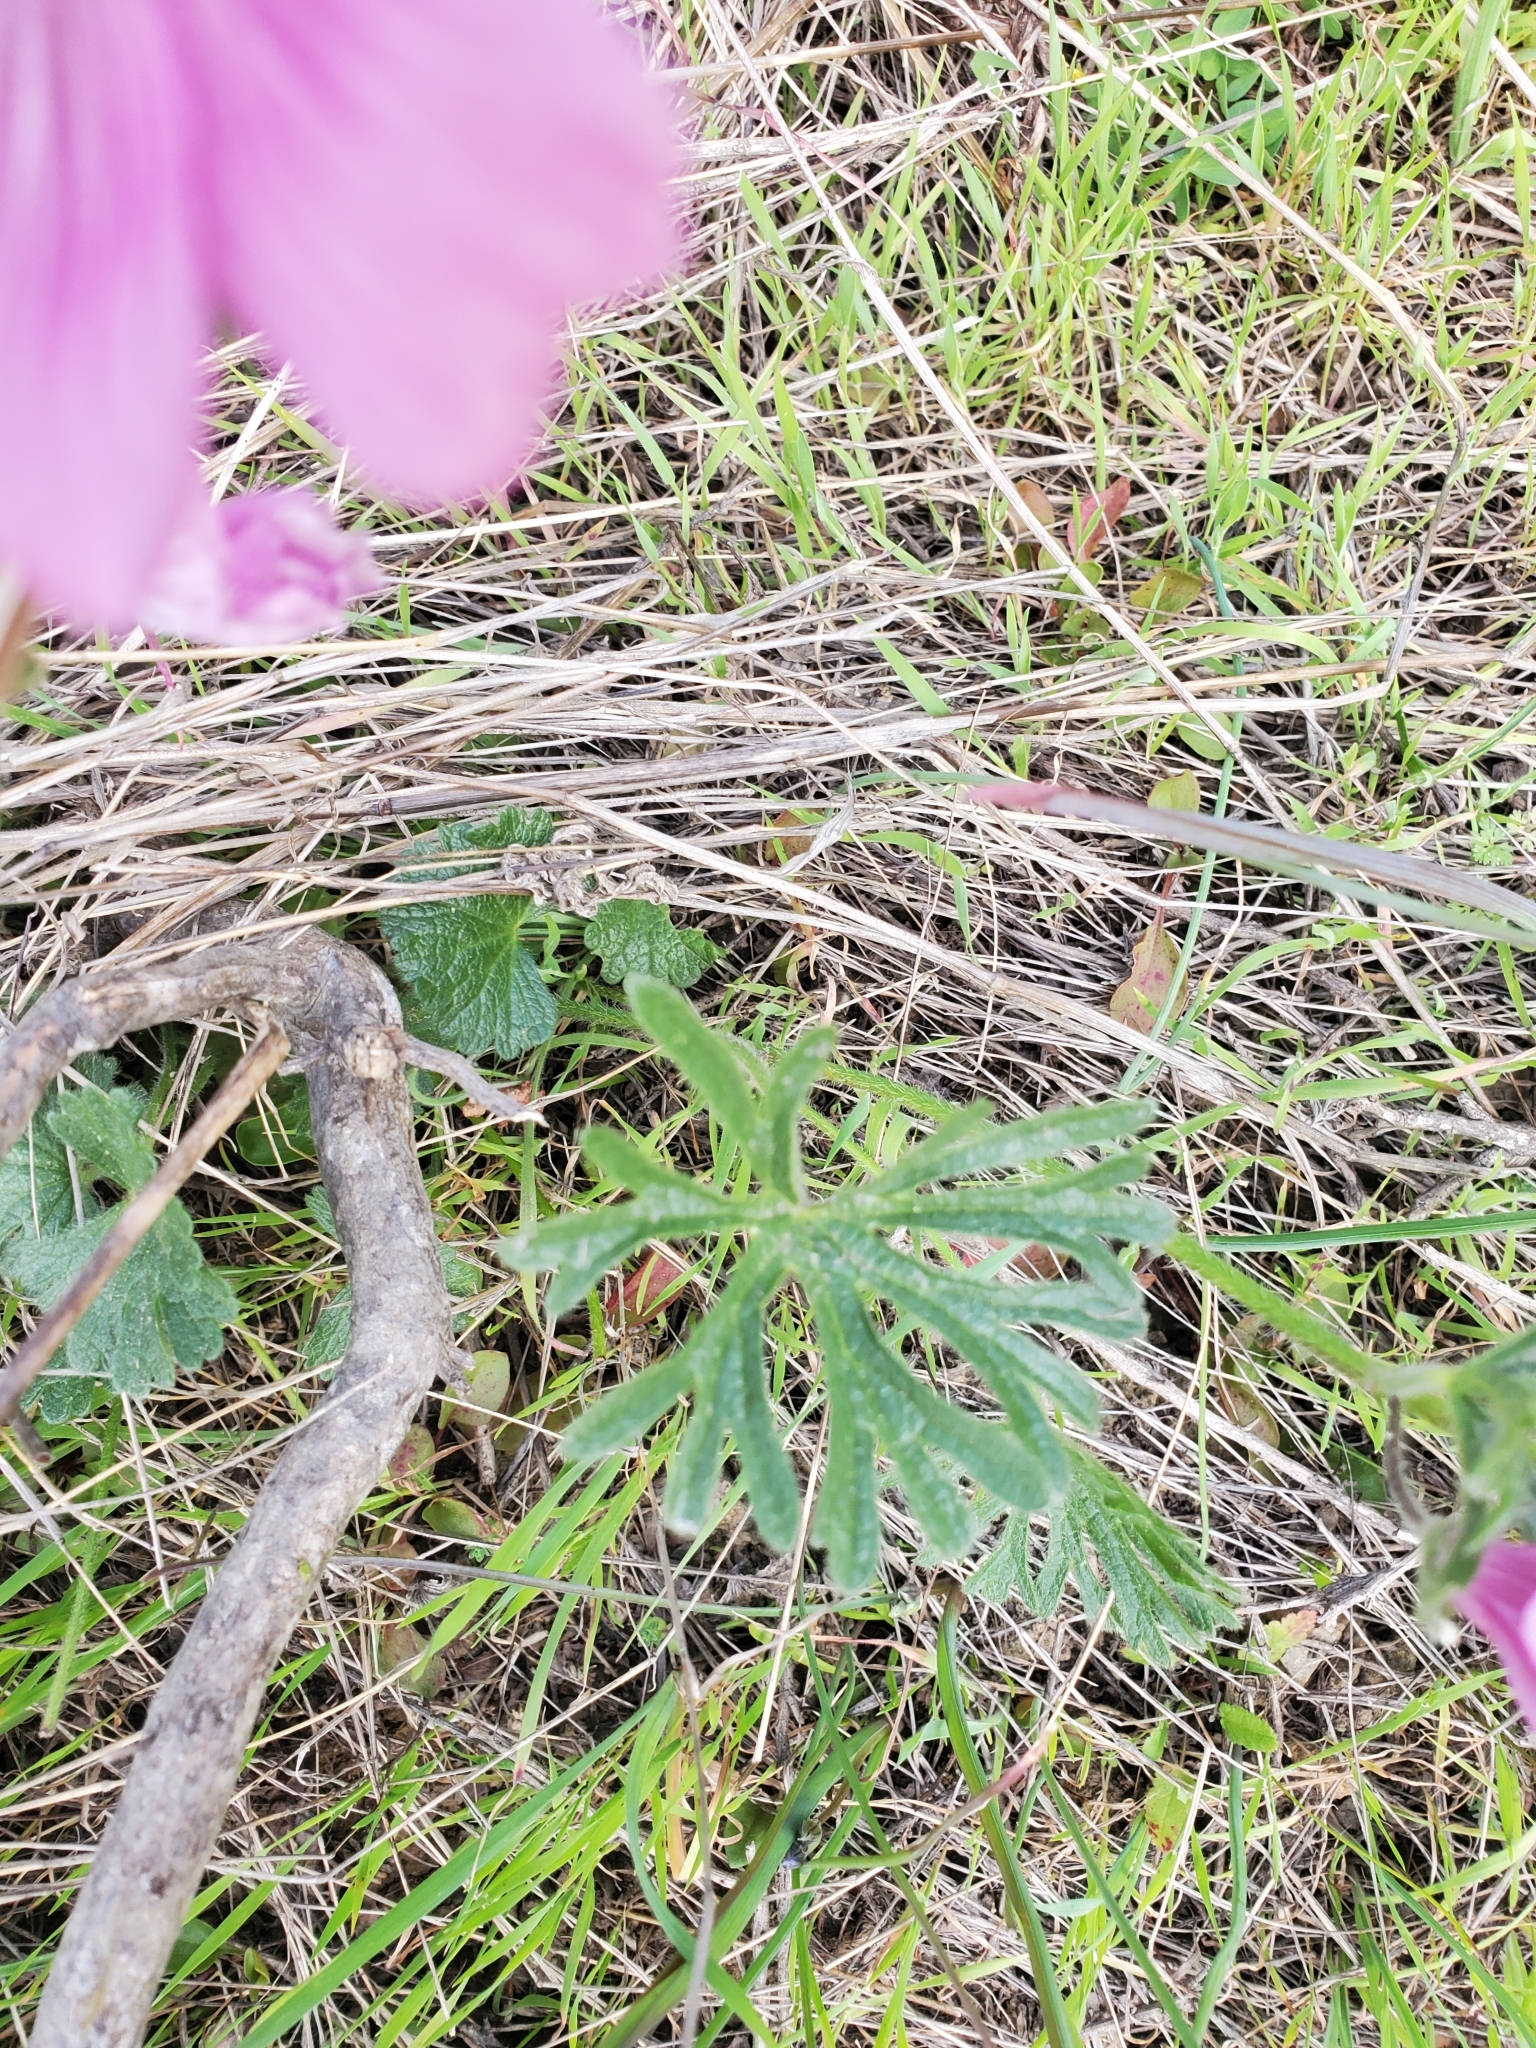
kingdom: Plantae
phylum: Tracheophyta
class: Magnoliopsida
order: Malvales
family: Malvaceae
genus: Sidalcea
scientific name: Sidalcea malviflora
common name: Greek mallow
